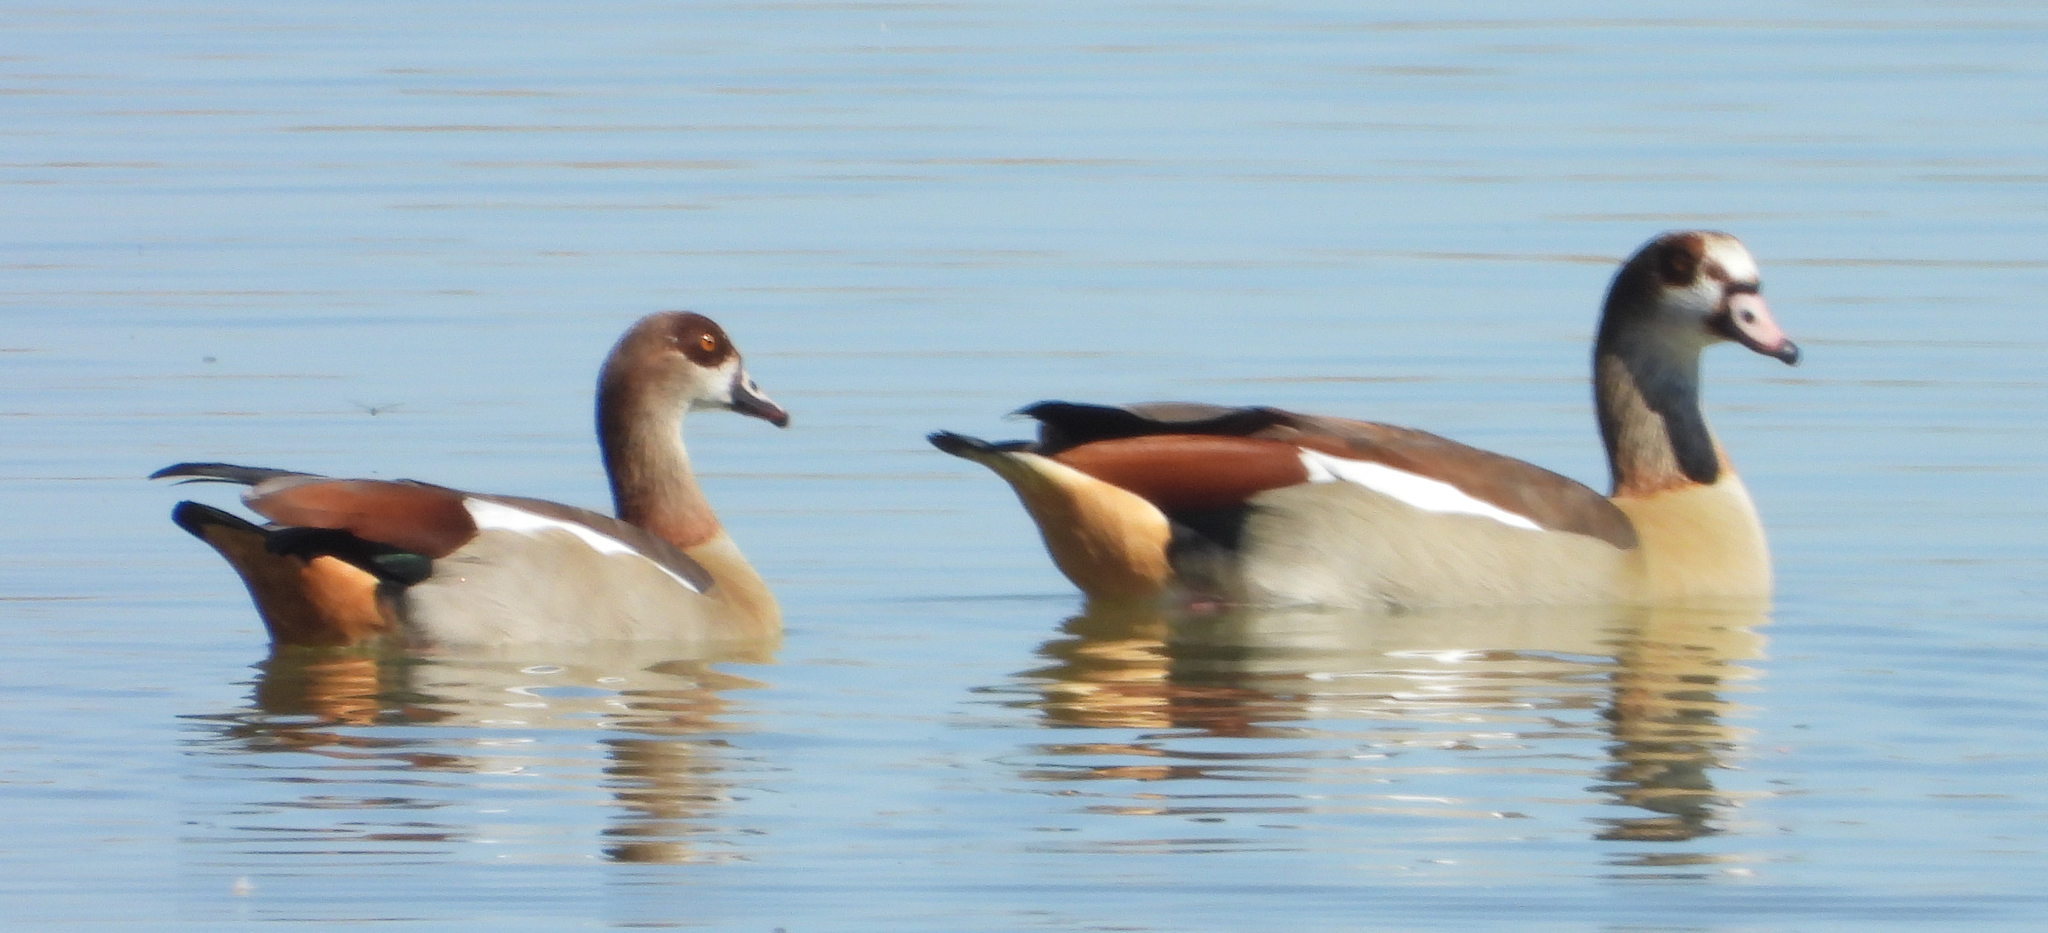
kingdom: Animalia
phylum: Chordata
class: Aves
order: Anseriformes
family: Anatidae
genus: Alopochen
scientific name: Alopochen aegyptiaca
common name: Egyptian goose
